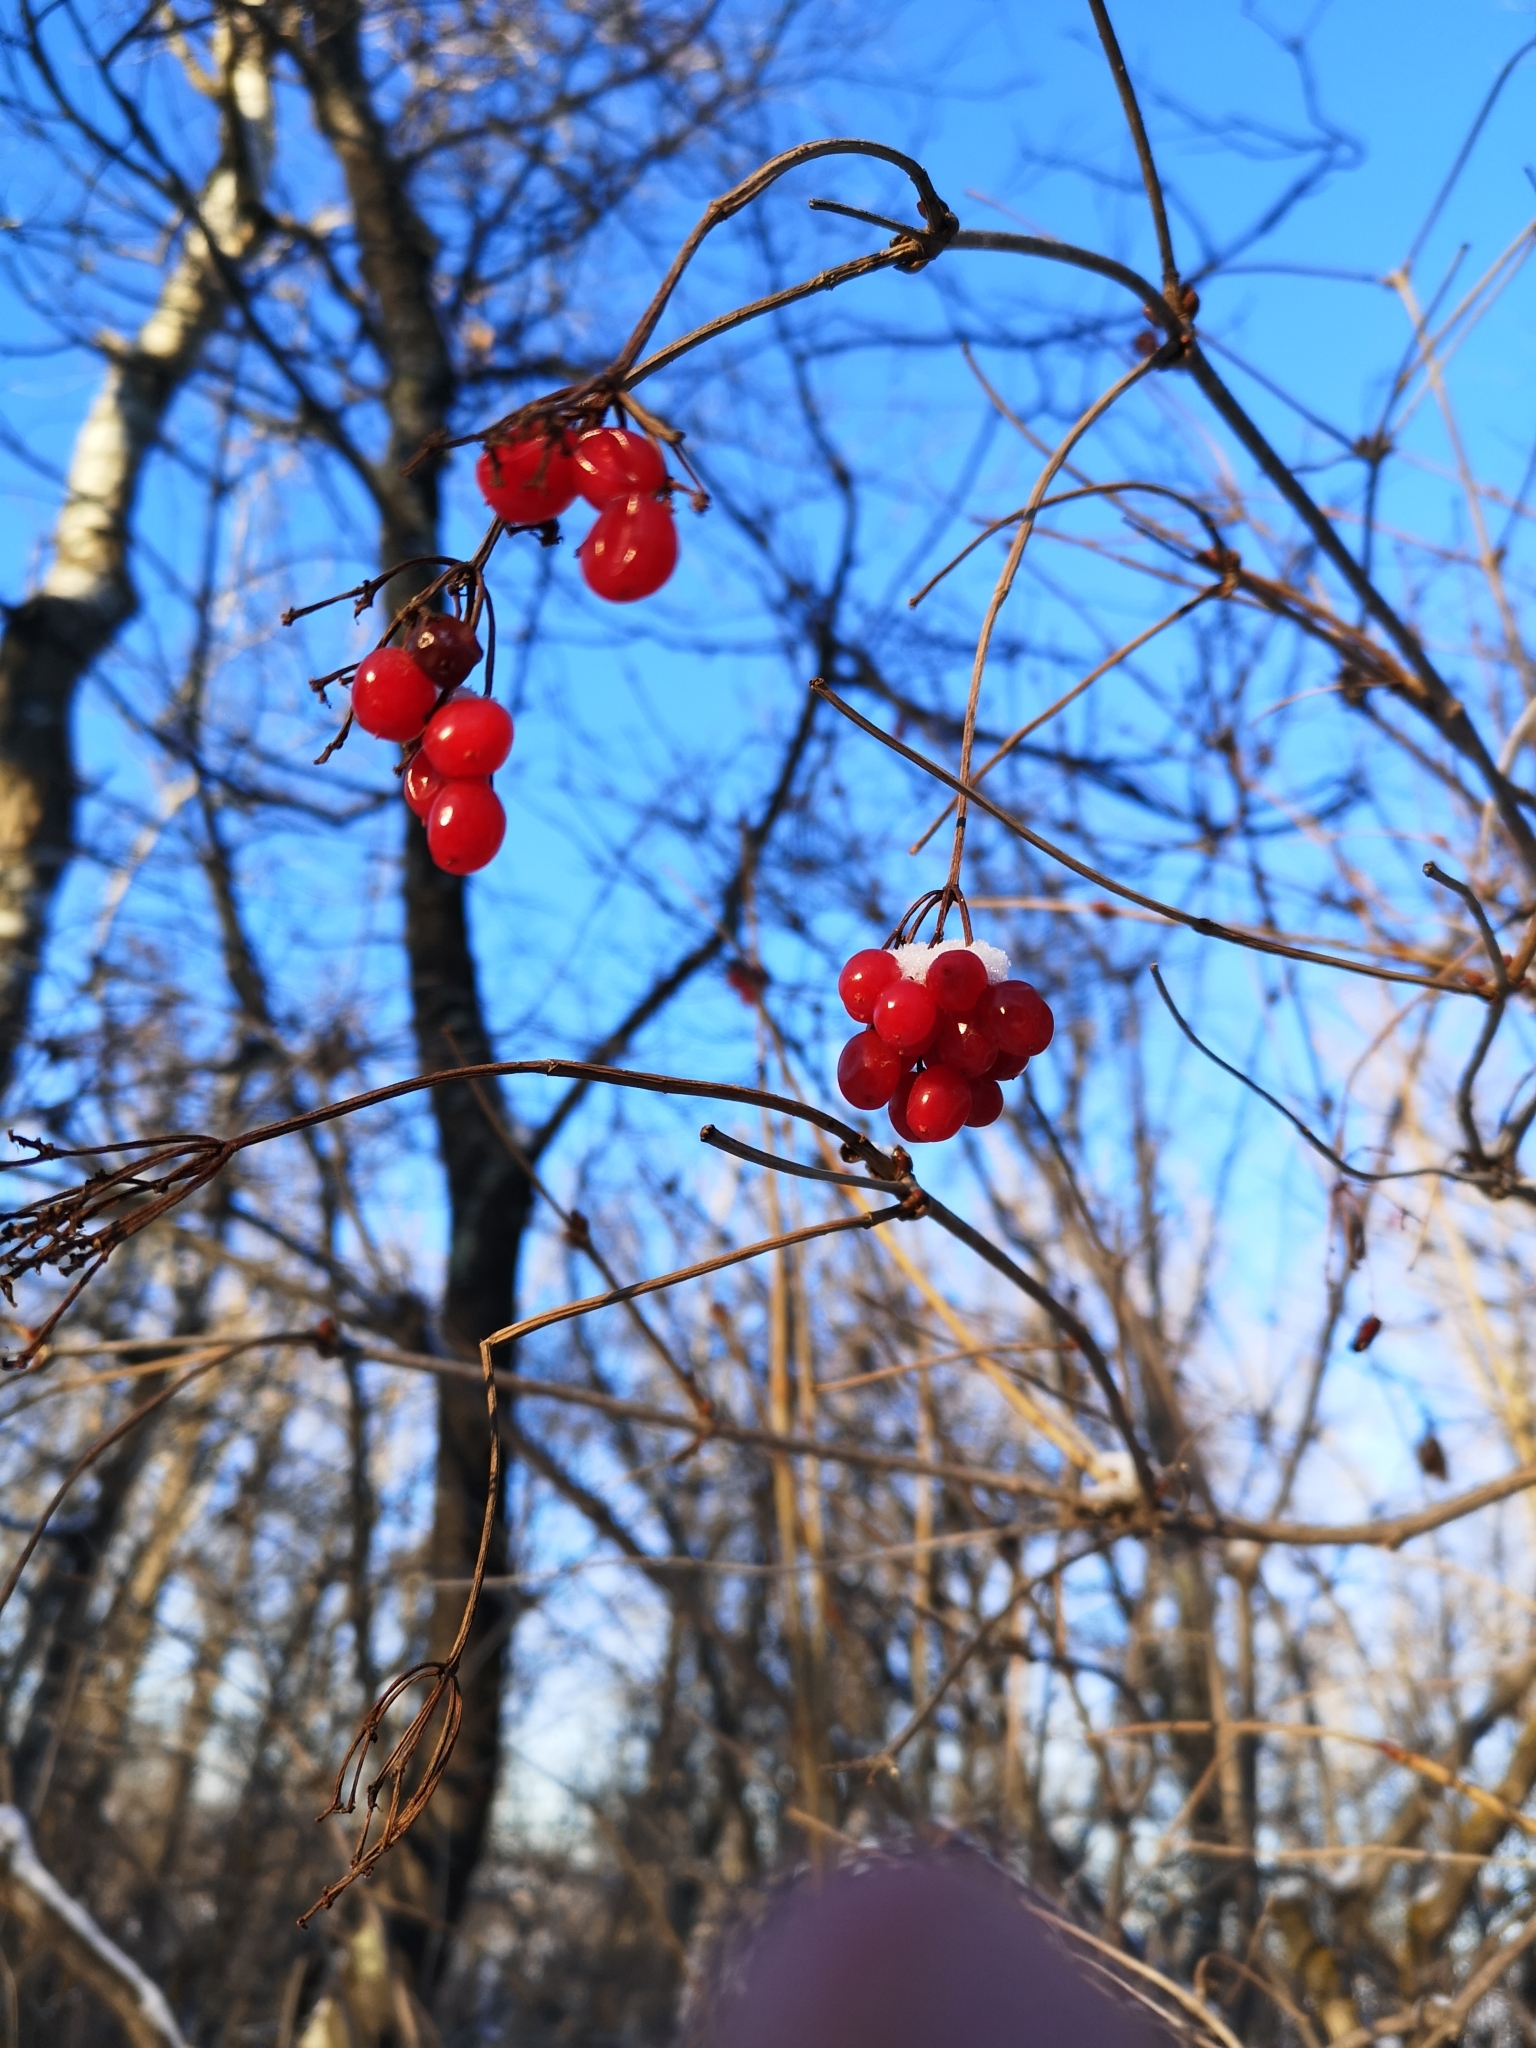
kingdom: Plantae
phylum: Tracheophyta
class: Magnoliopsida
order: Dipsacales
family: Viburnaceae
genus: Viburnum
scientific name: Viburnum opulus
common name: Guelder-rose
